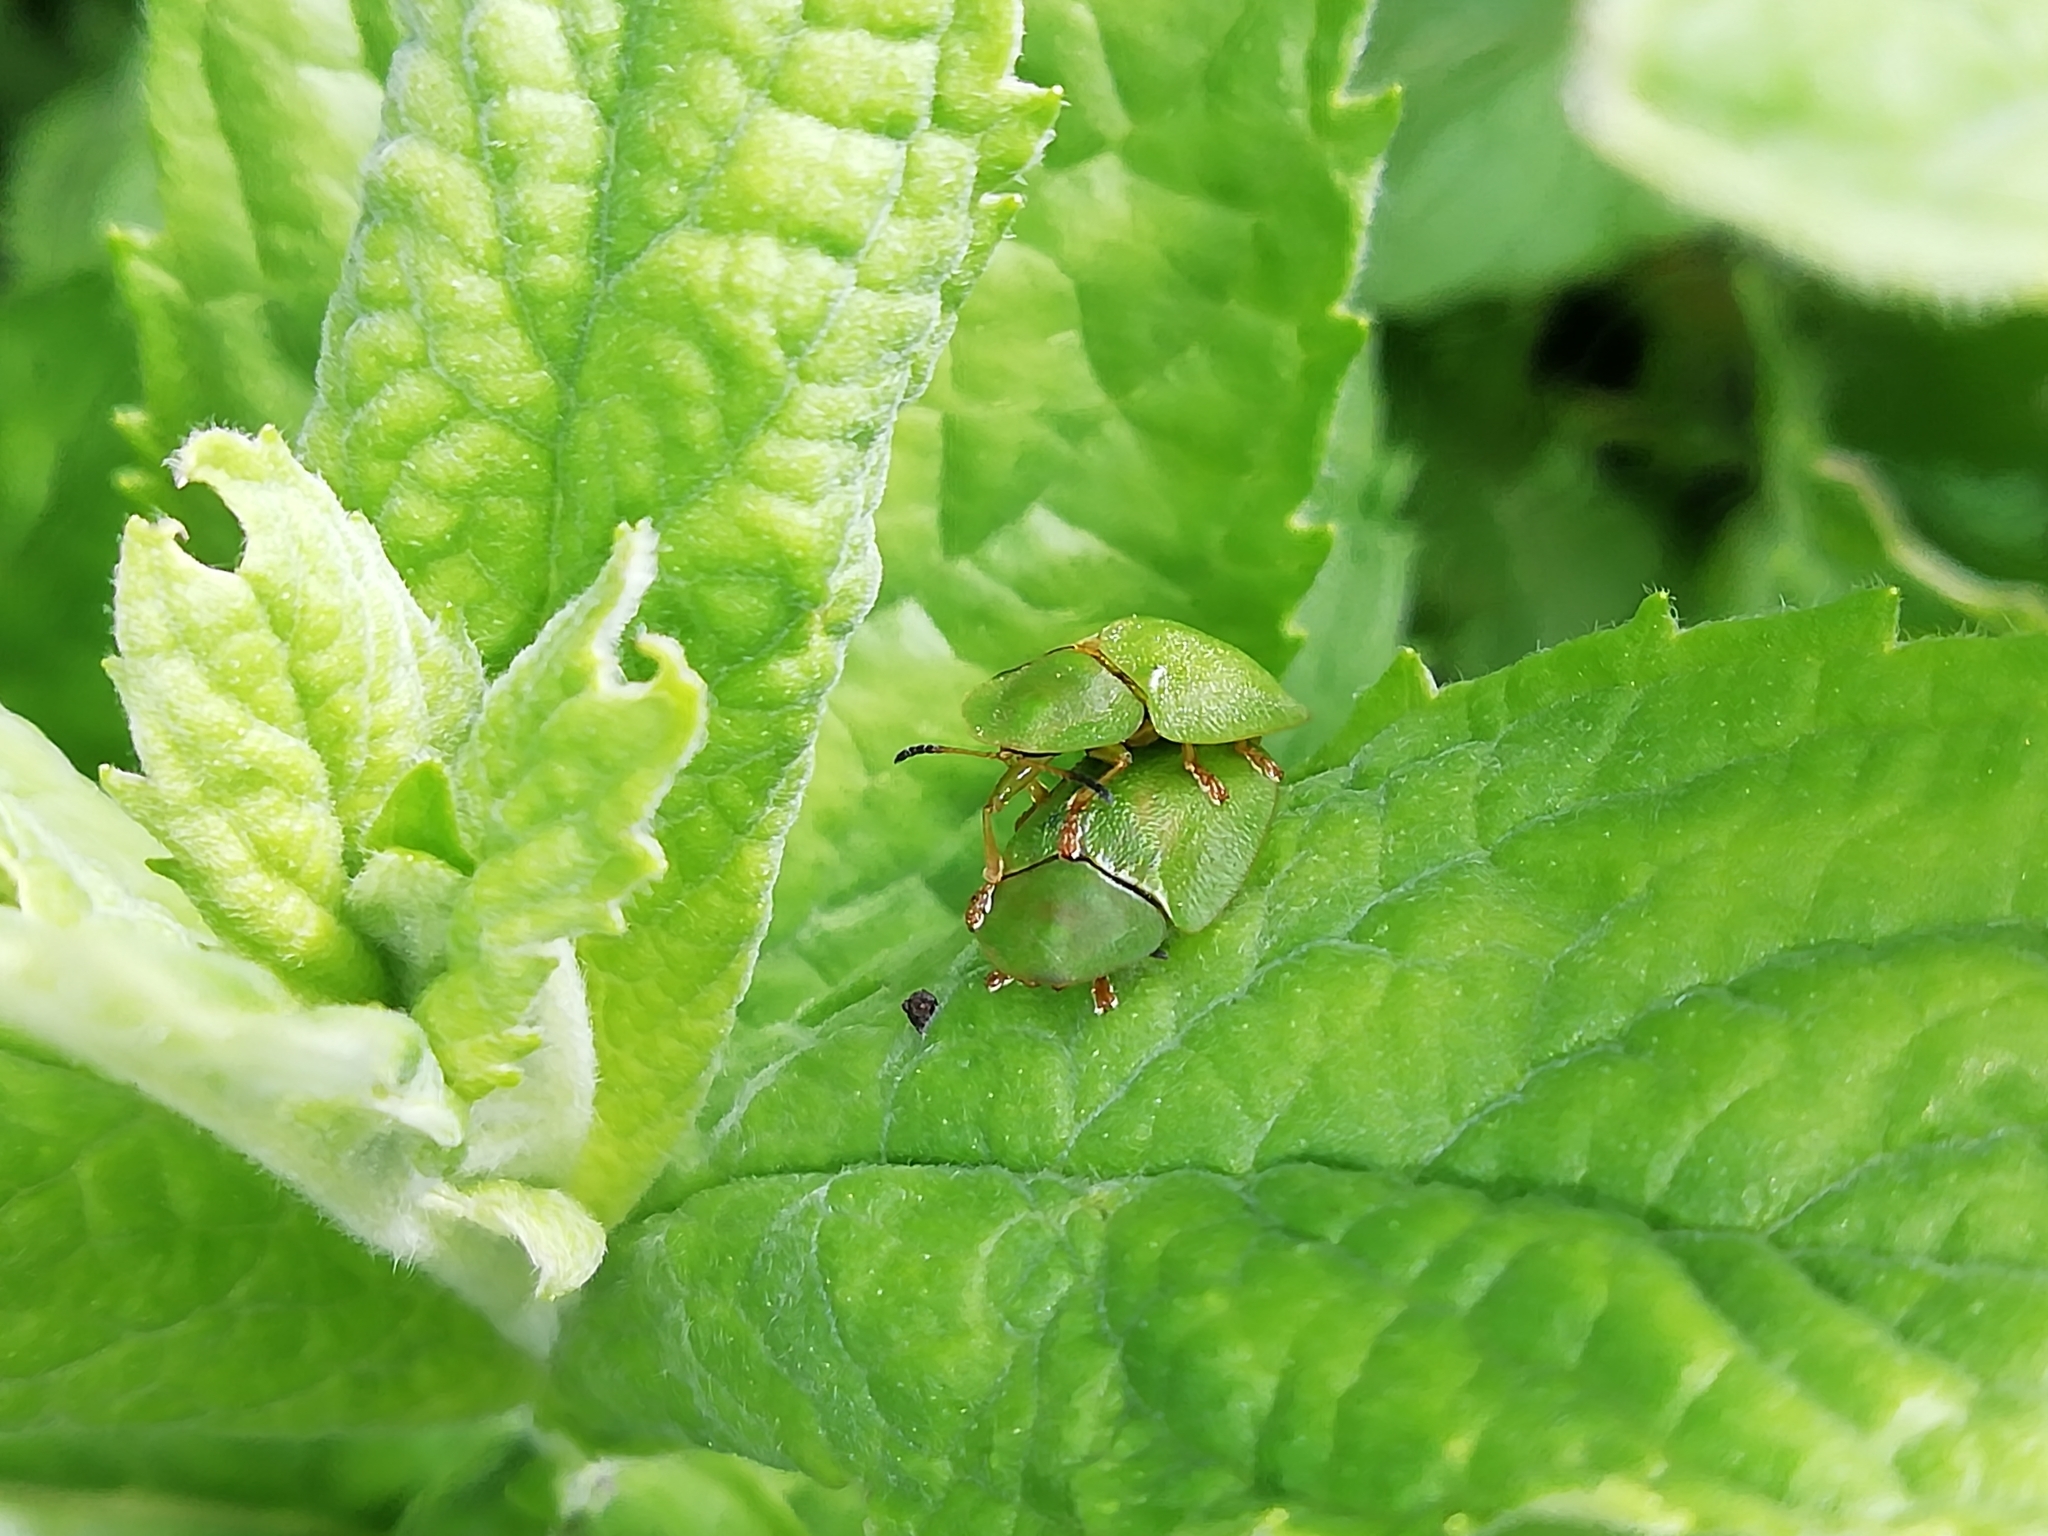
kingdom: Animalia
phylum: Arthropoda
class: Insecta
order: Coleoptera
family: Chrysomelidae
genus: Cassida
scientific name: Cassida viridis
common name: Green tortoise beetle
